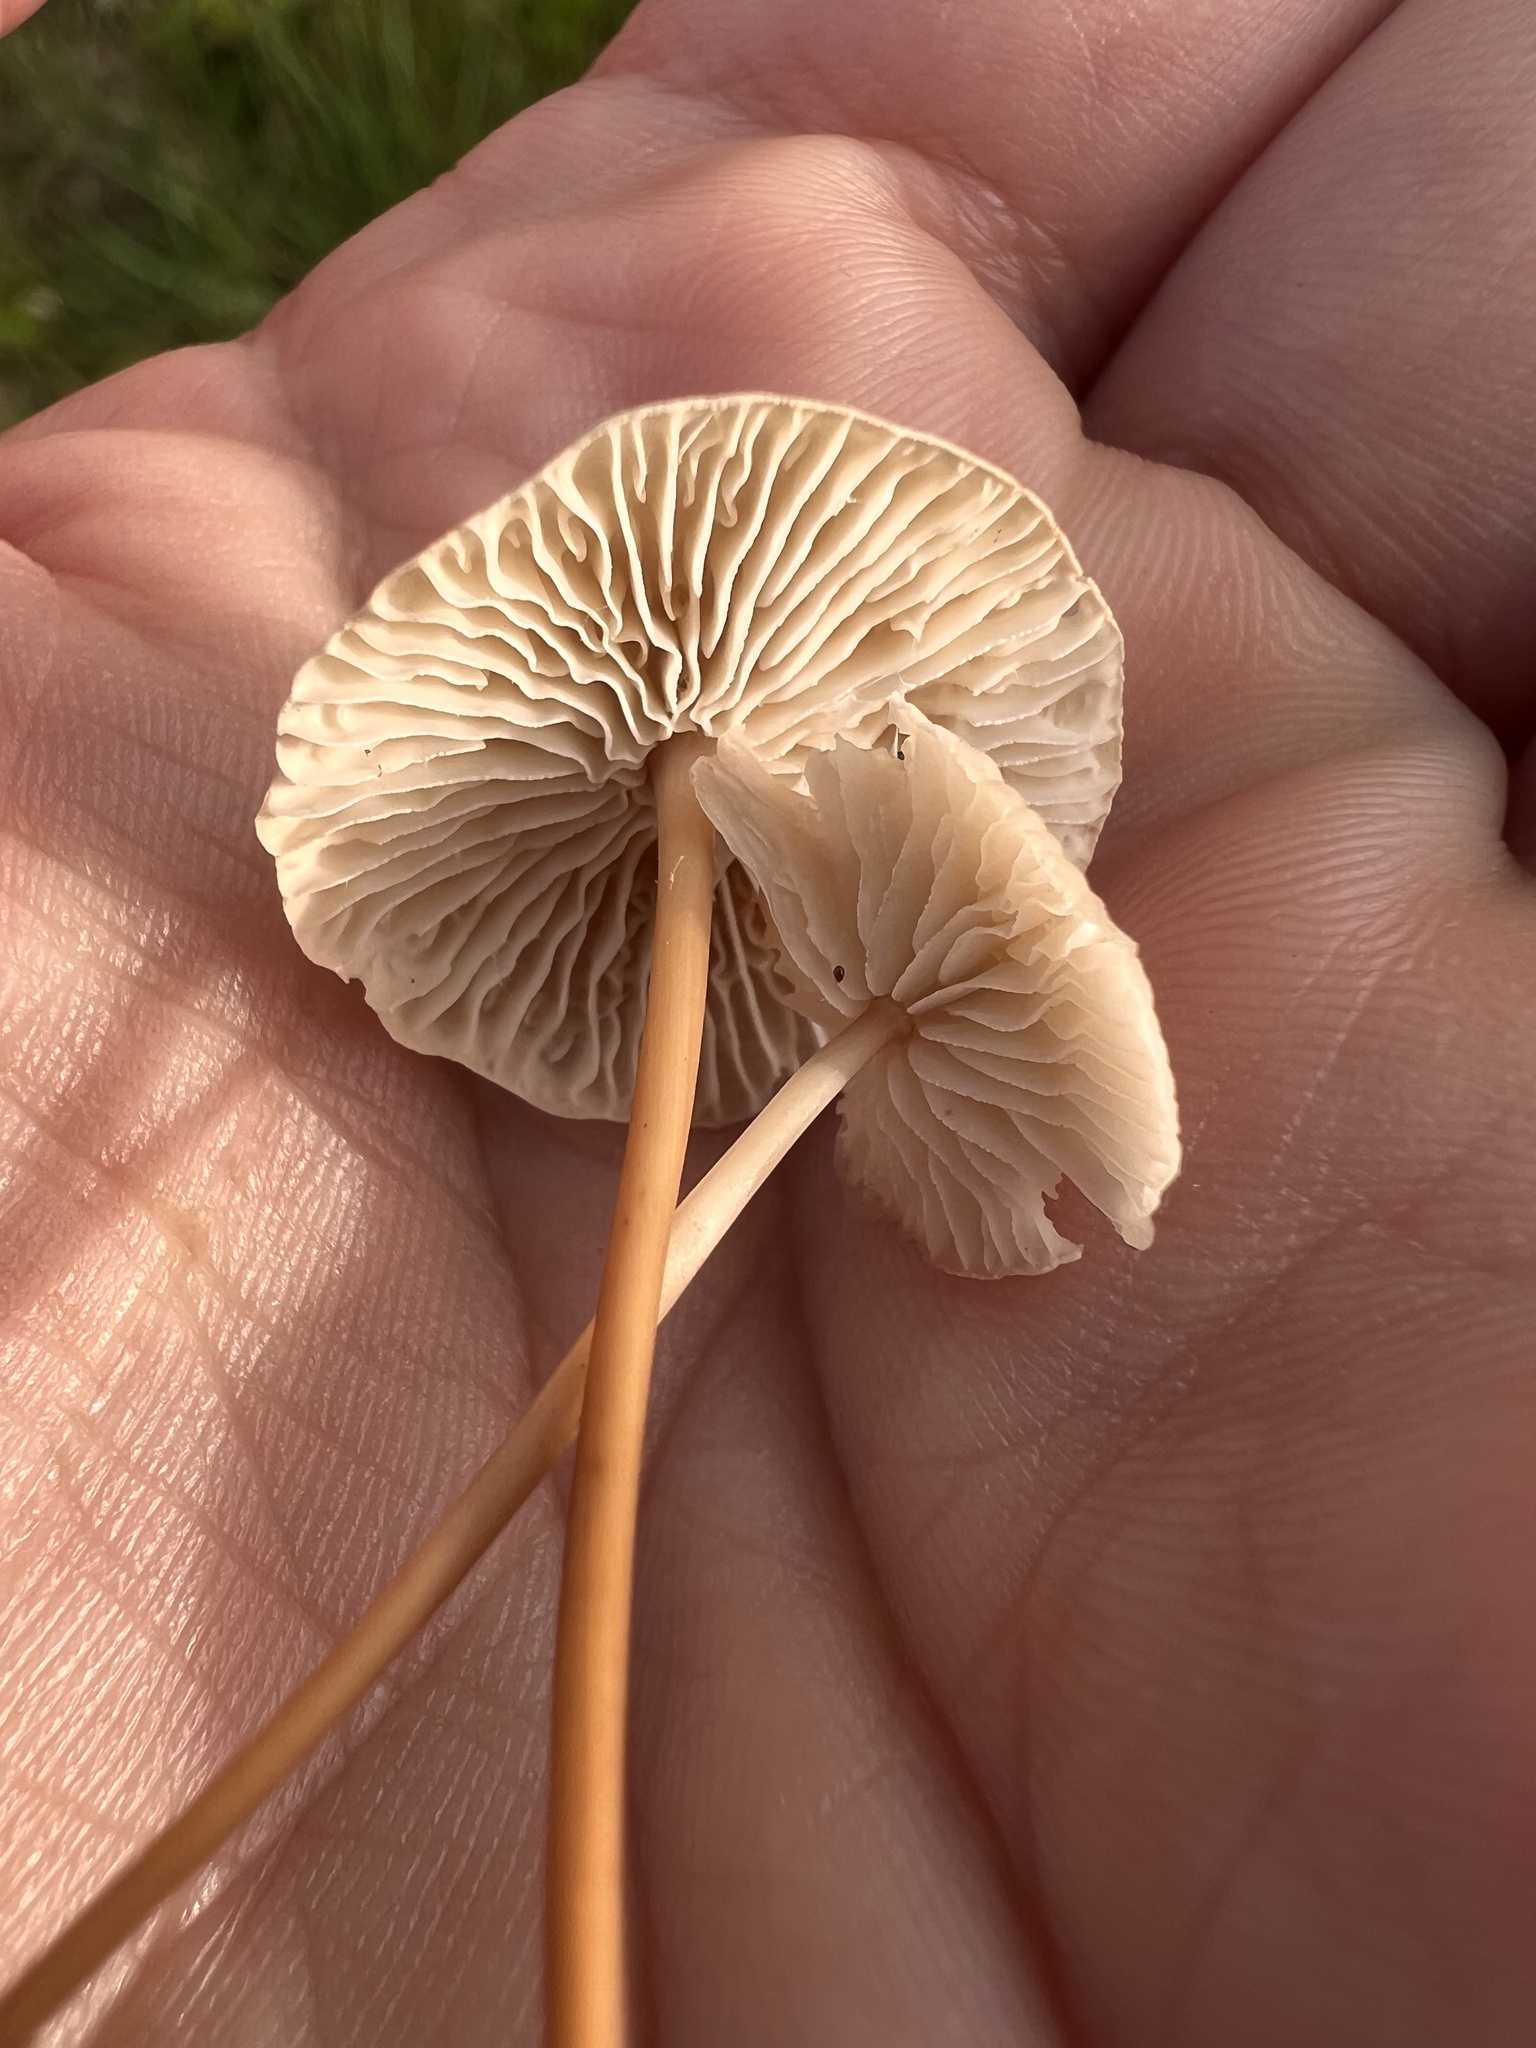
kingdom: Fungi
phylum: Basidiomycota
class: Agaricomycetes
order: Agaricales
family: Omphalotaceae
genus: Mycetinis
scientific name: Mycetinis scorodonius
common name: Vampires bane
